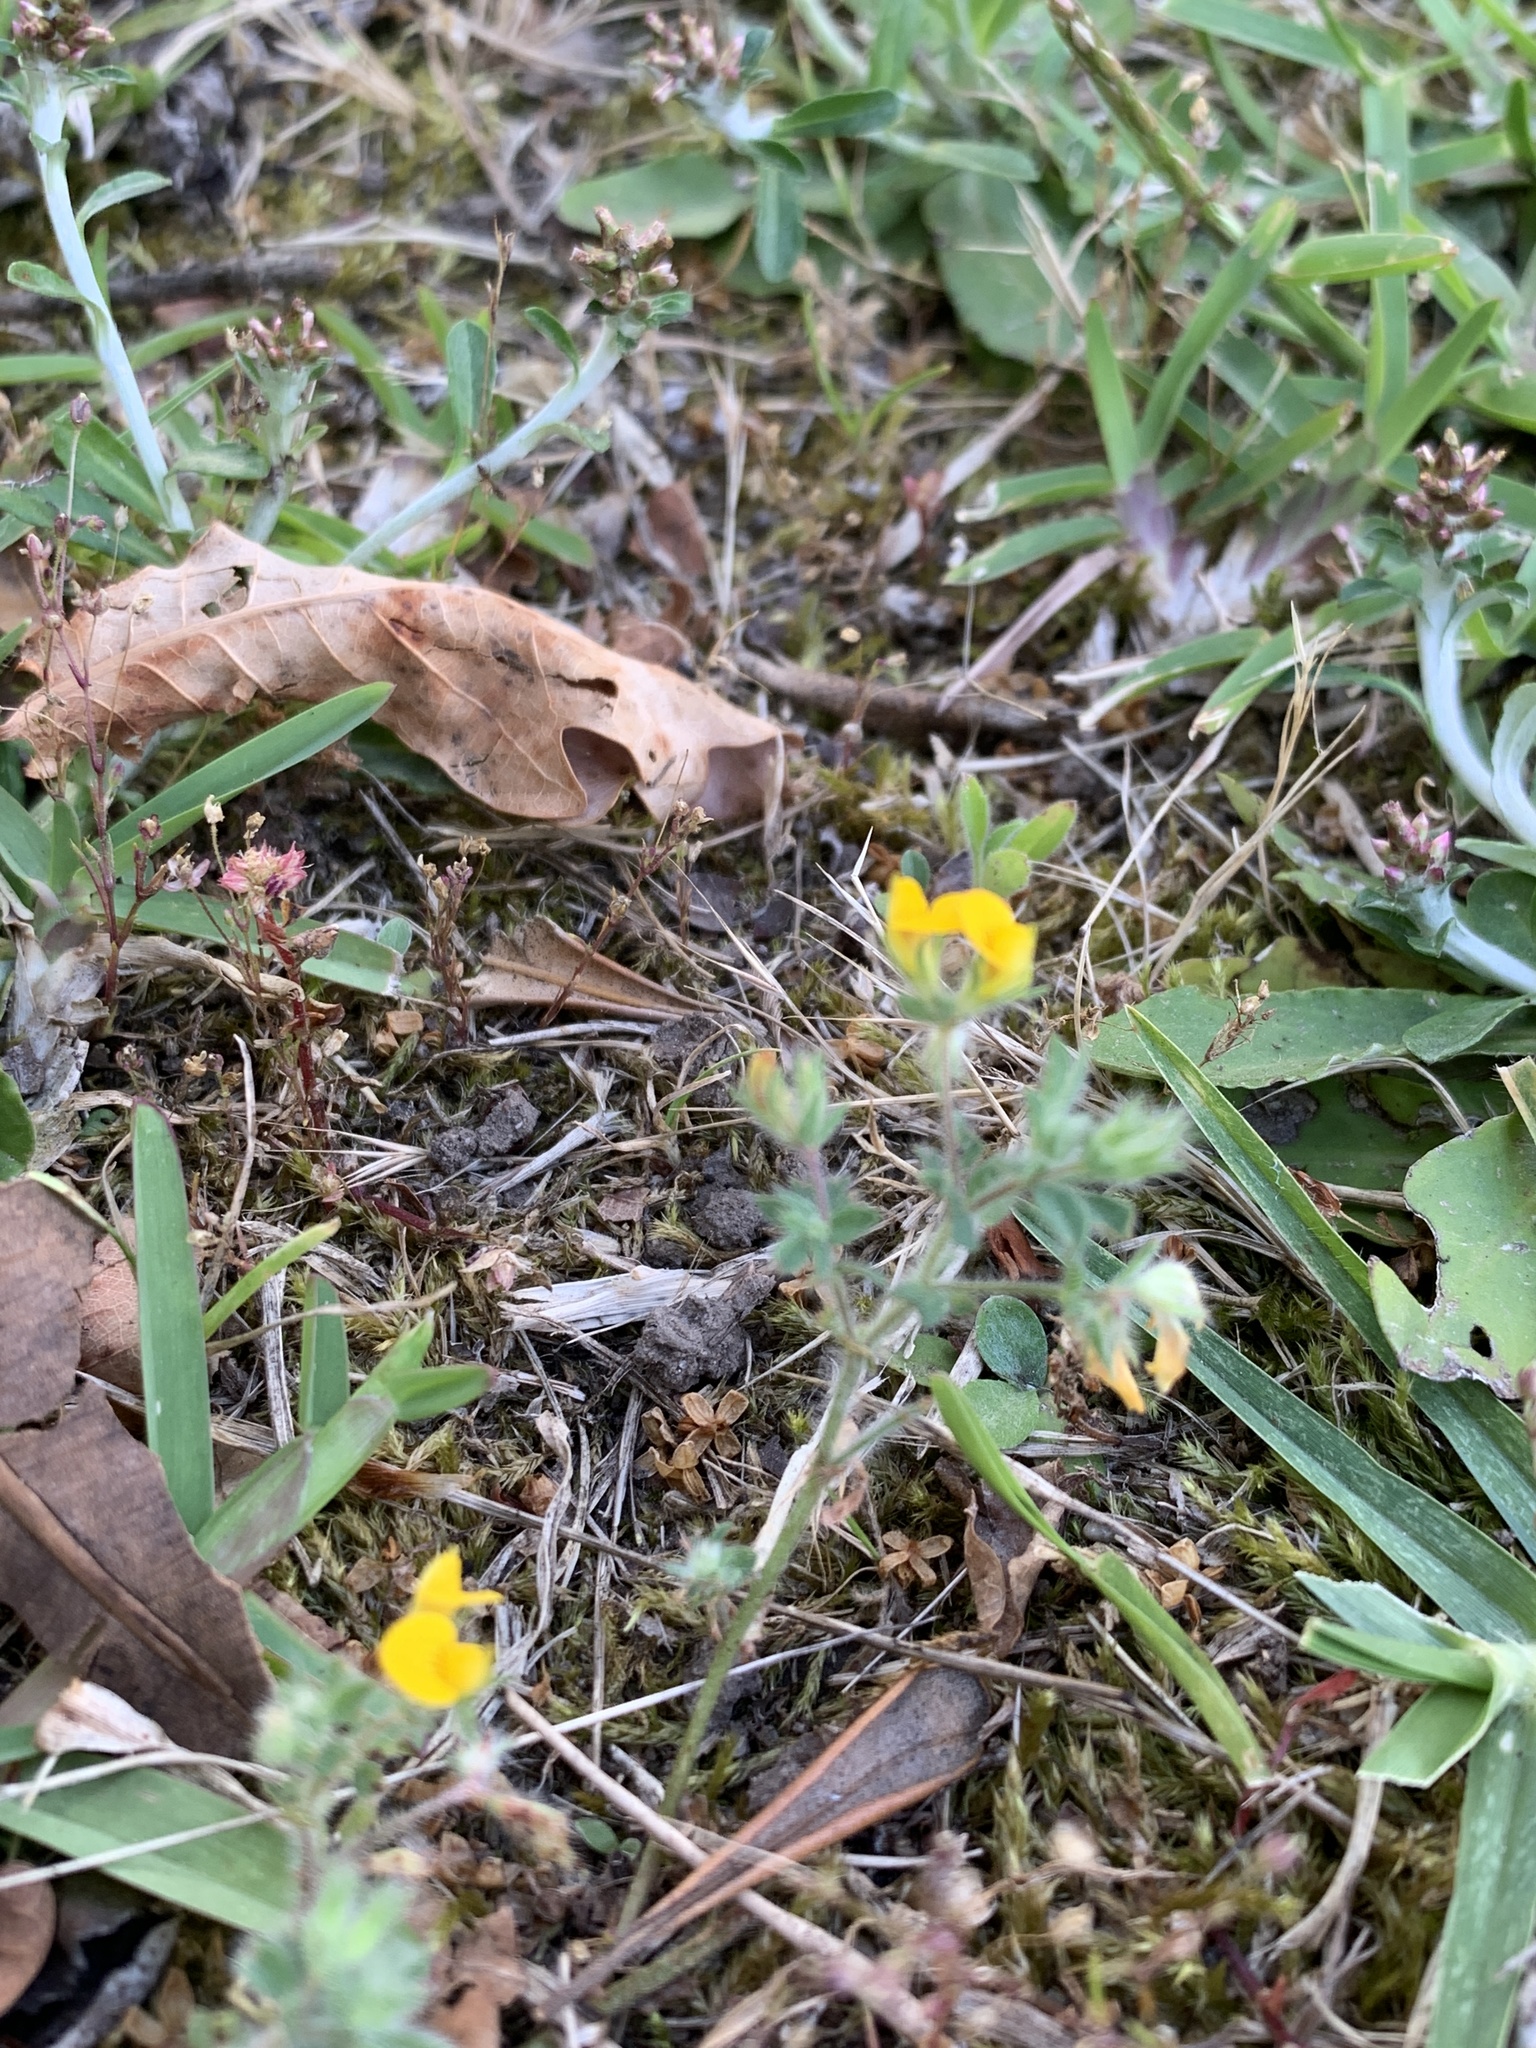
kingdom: Plantae
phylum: Tracheophyta
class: Magnoliopsida
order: Fabales
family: Fabaceae
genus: Lotus
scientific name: Lotus subbiflorus
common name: Hairy bird's-foot trefoil
